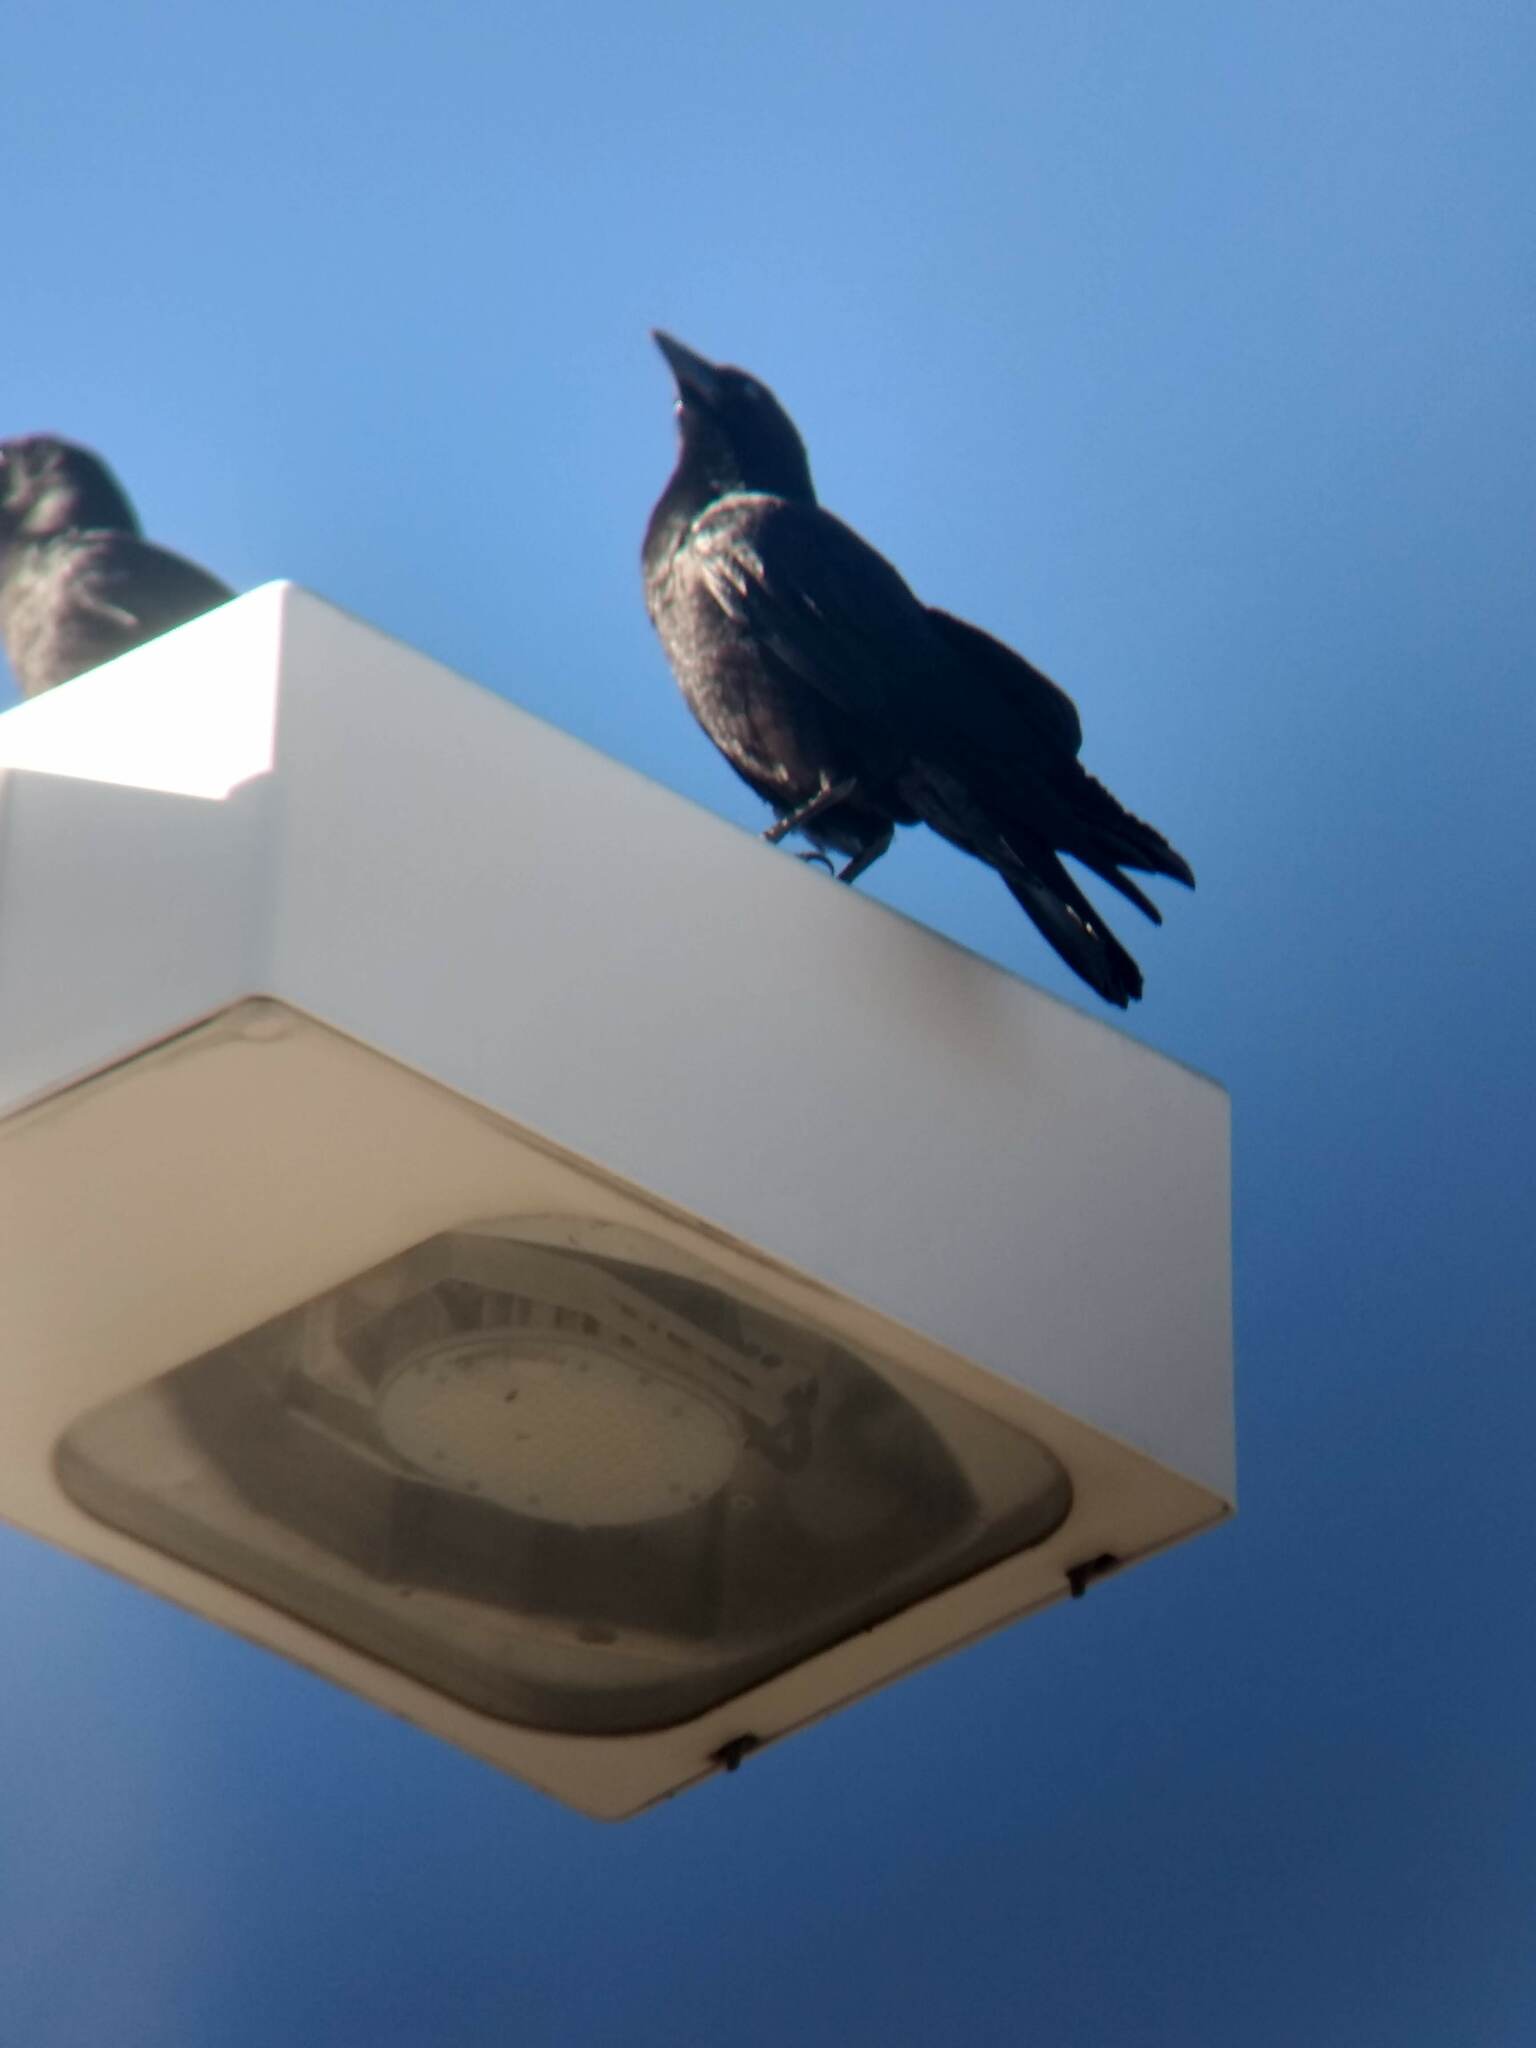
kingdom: Animalia
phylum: Chordata
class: Aves
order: Passeriformes
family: Corvidae
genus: Corvus
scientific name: Corvus brachyrhynchos
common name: American crow
